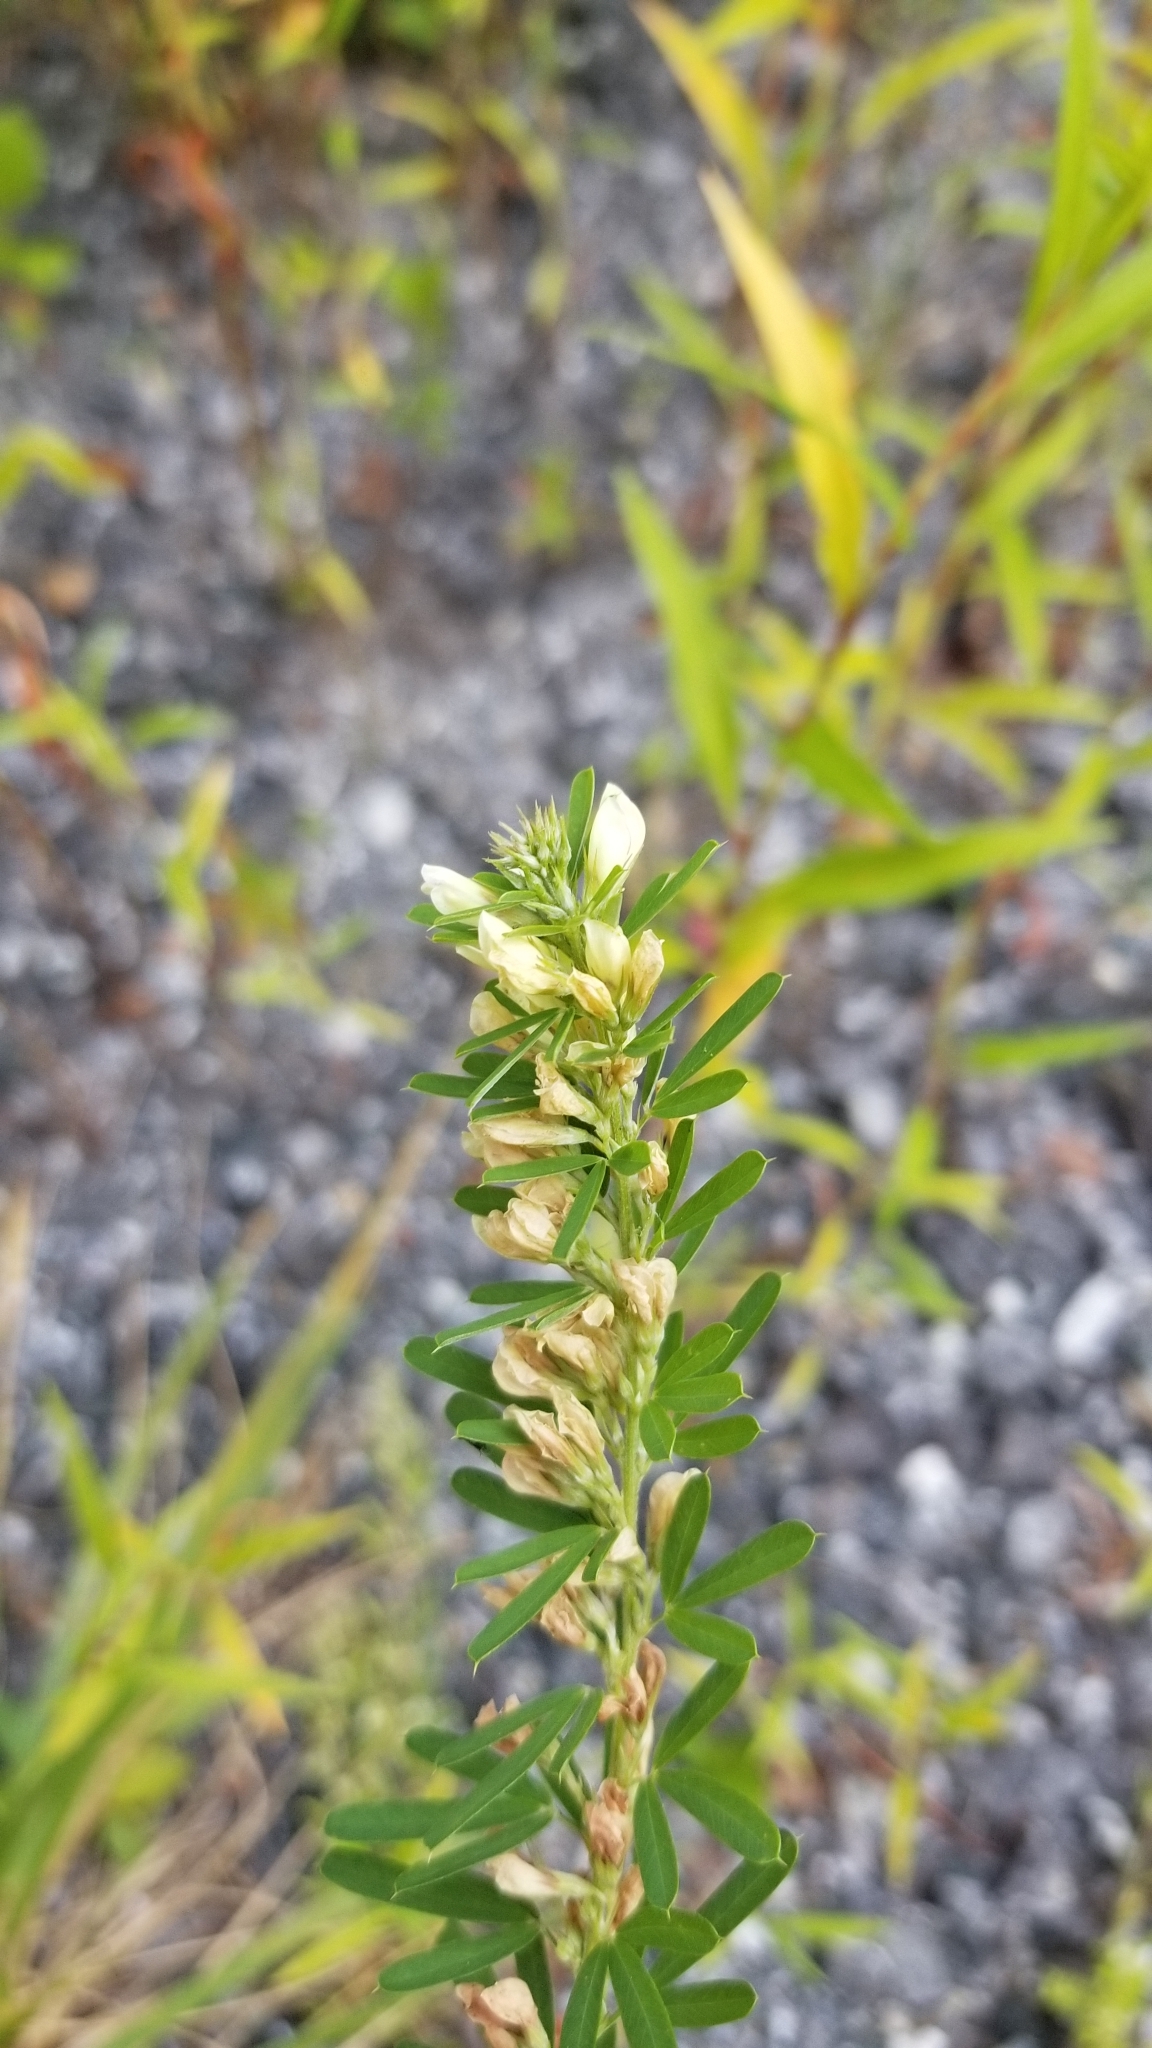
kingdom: Plantae
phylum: Tracheophyta
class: Magnoliopsida
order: Fabales
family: Fabaceae
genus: Lespedeza
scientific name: Lespedeza cuneata
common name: Chinese bush-clover
